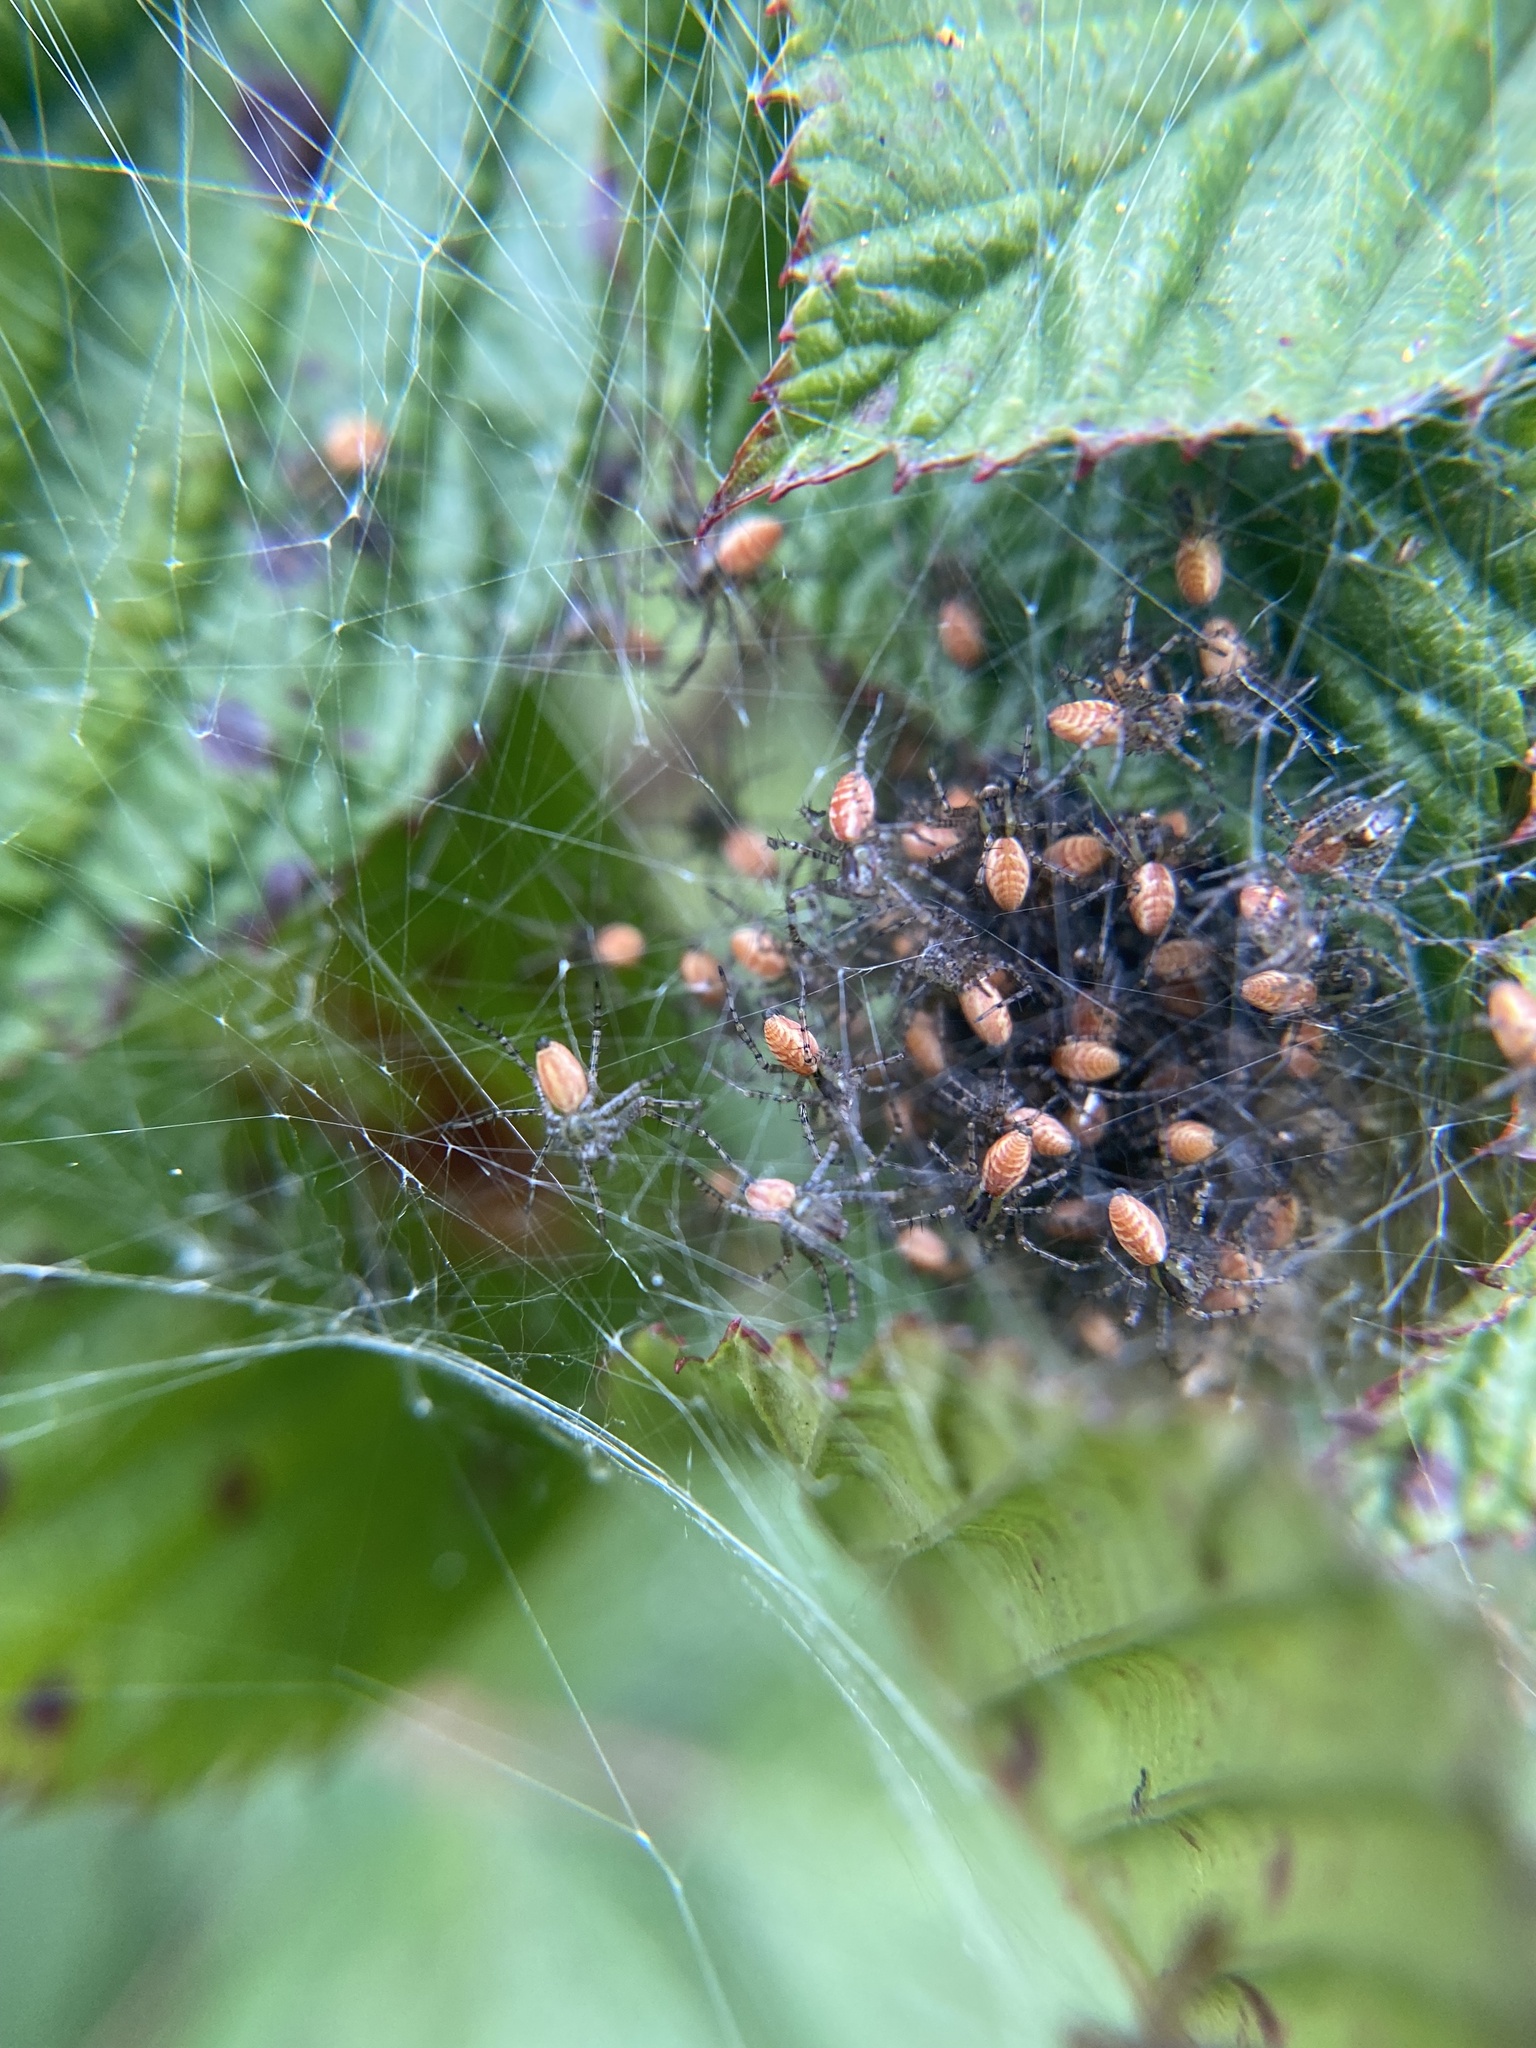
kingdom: Animalia
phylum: Arthropoda
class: Arachnida
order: Araneae
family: Oxyopidae
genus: Peucetia
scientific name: Peucetia viridans
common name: Lynx spiders
